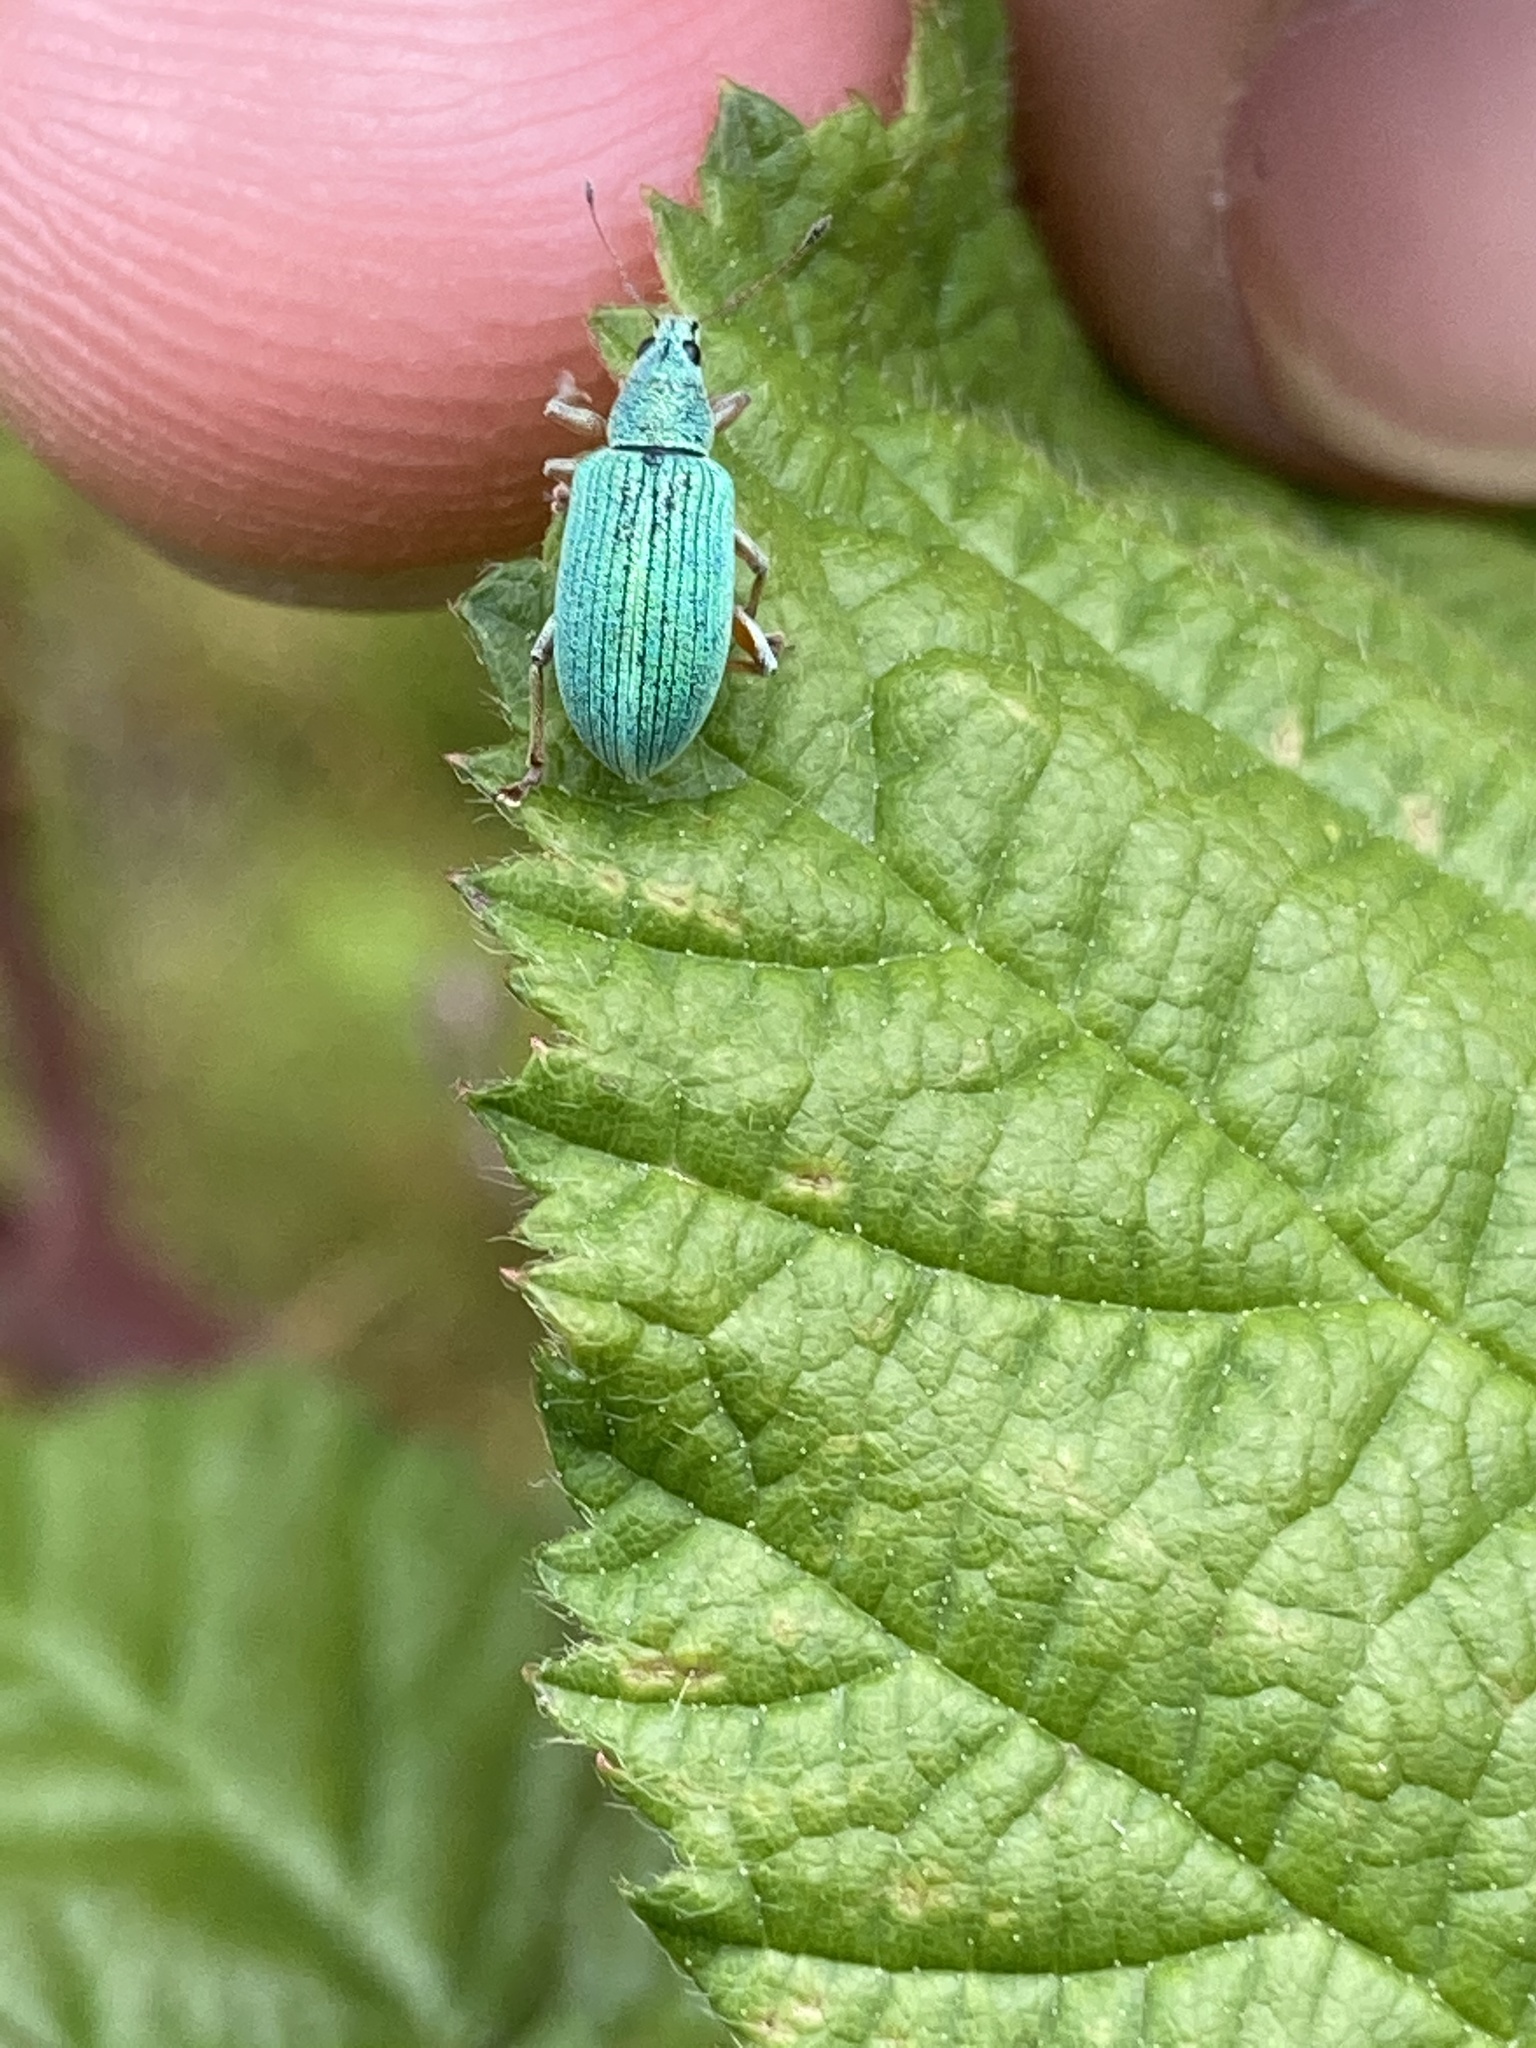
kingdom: Animalia
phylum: Arthropoda
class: Insecta
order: Coleoptera
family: Curculionidae
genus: Polydrusus
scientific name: Polydrusus formosus
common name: Weevil
